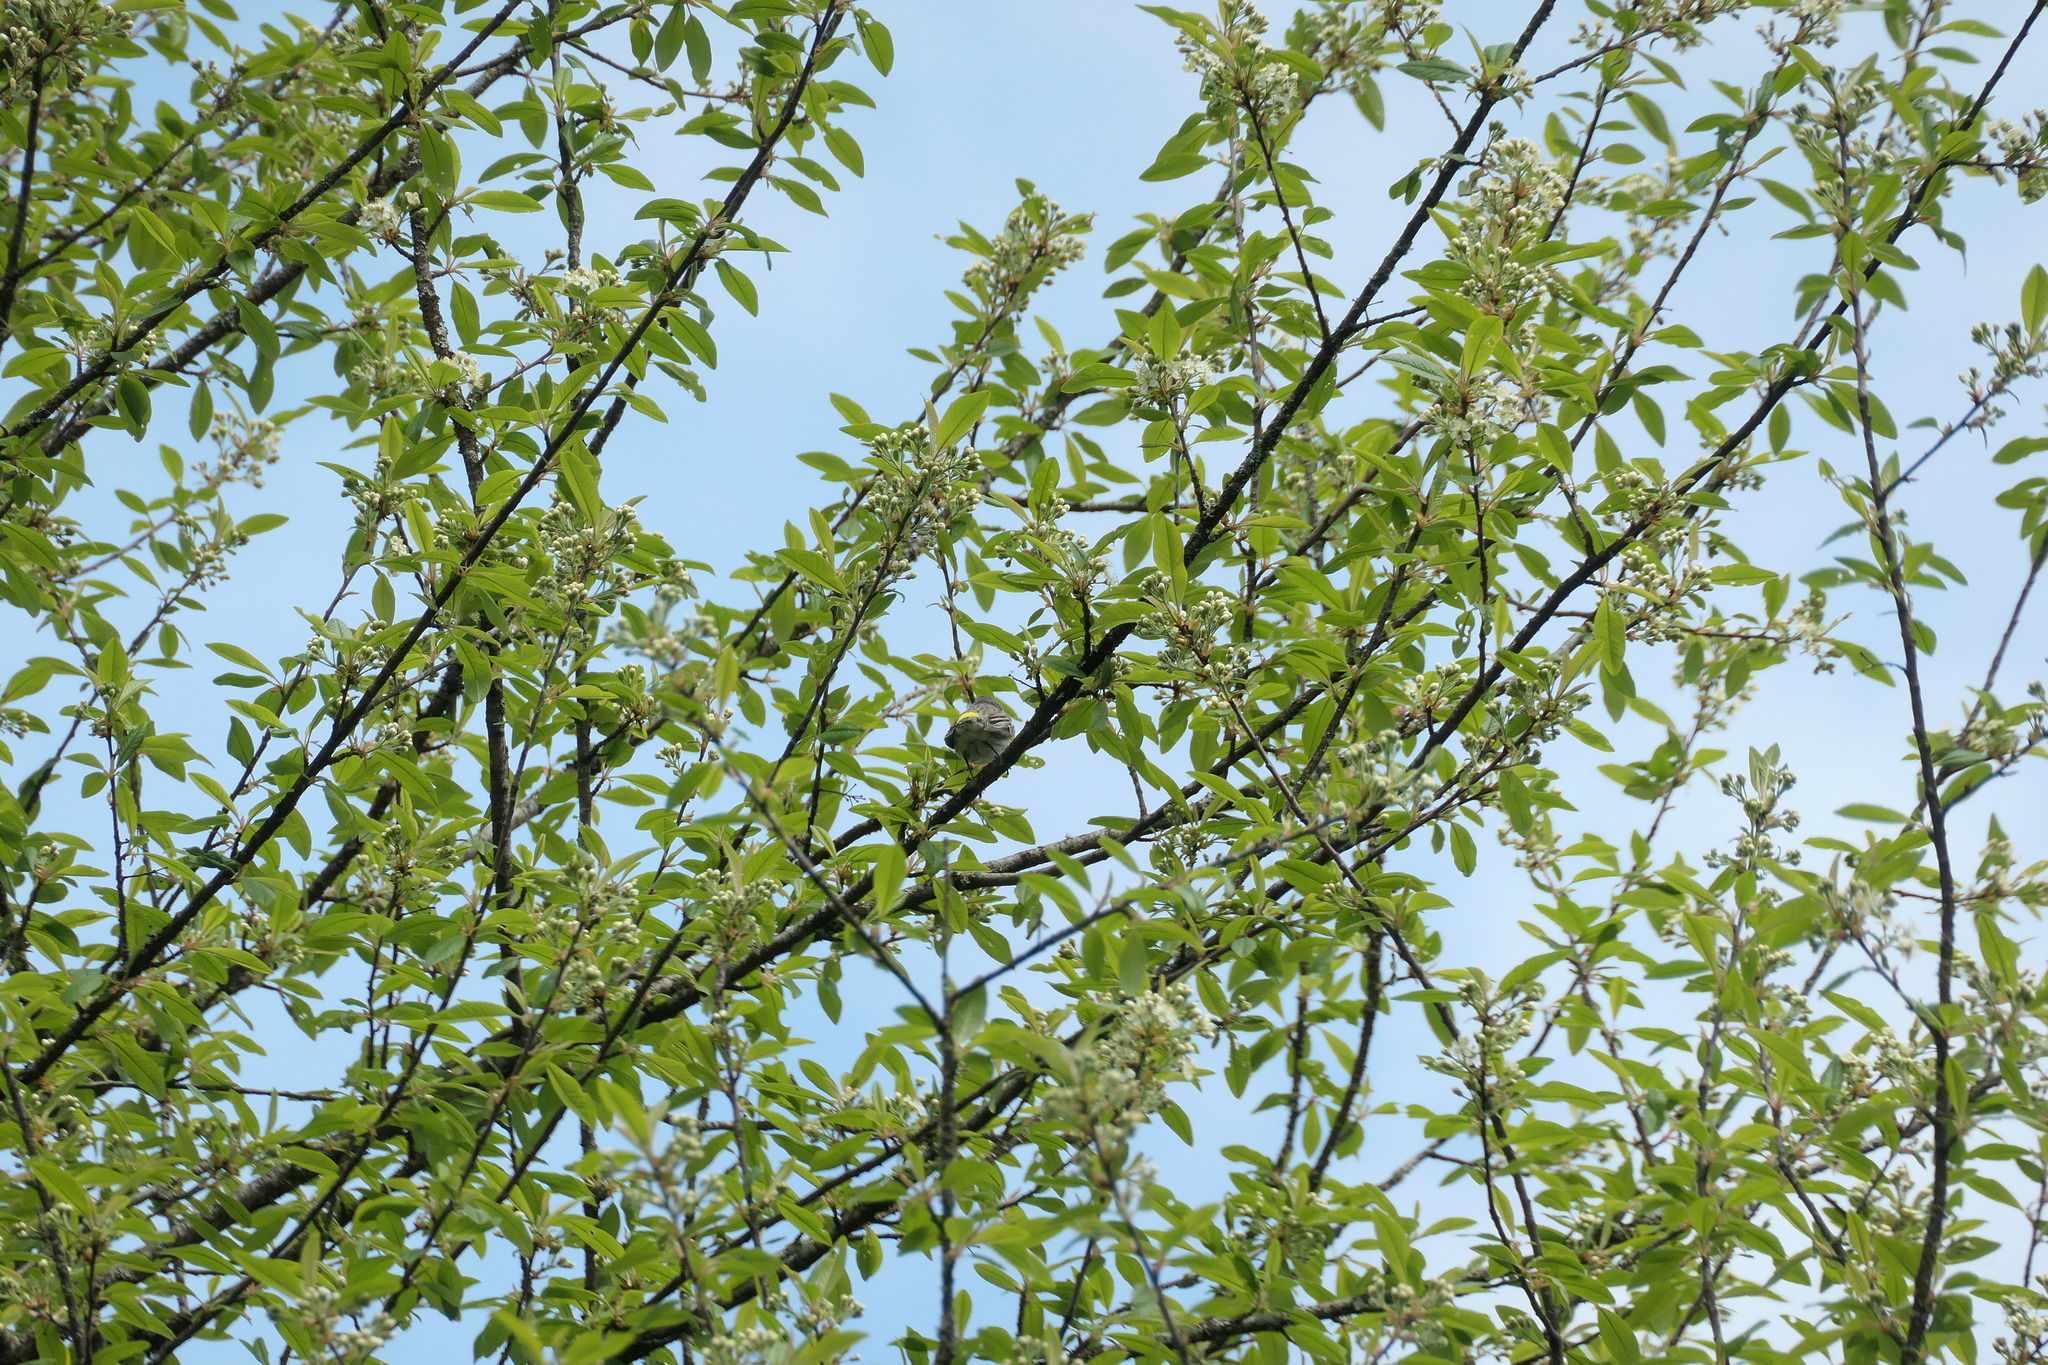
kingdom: Animalia
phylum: Chordata
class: Aves
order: Passeriformes
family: Parulidae
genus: Setophaga
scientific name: Setophaga coronata
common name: Myrtle warbler
